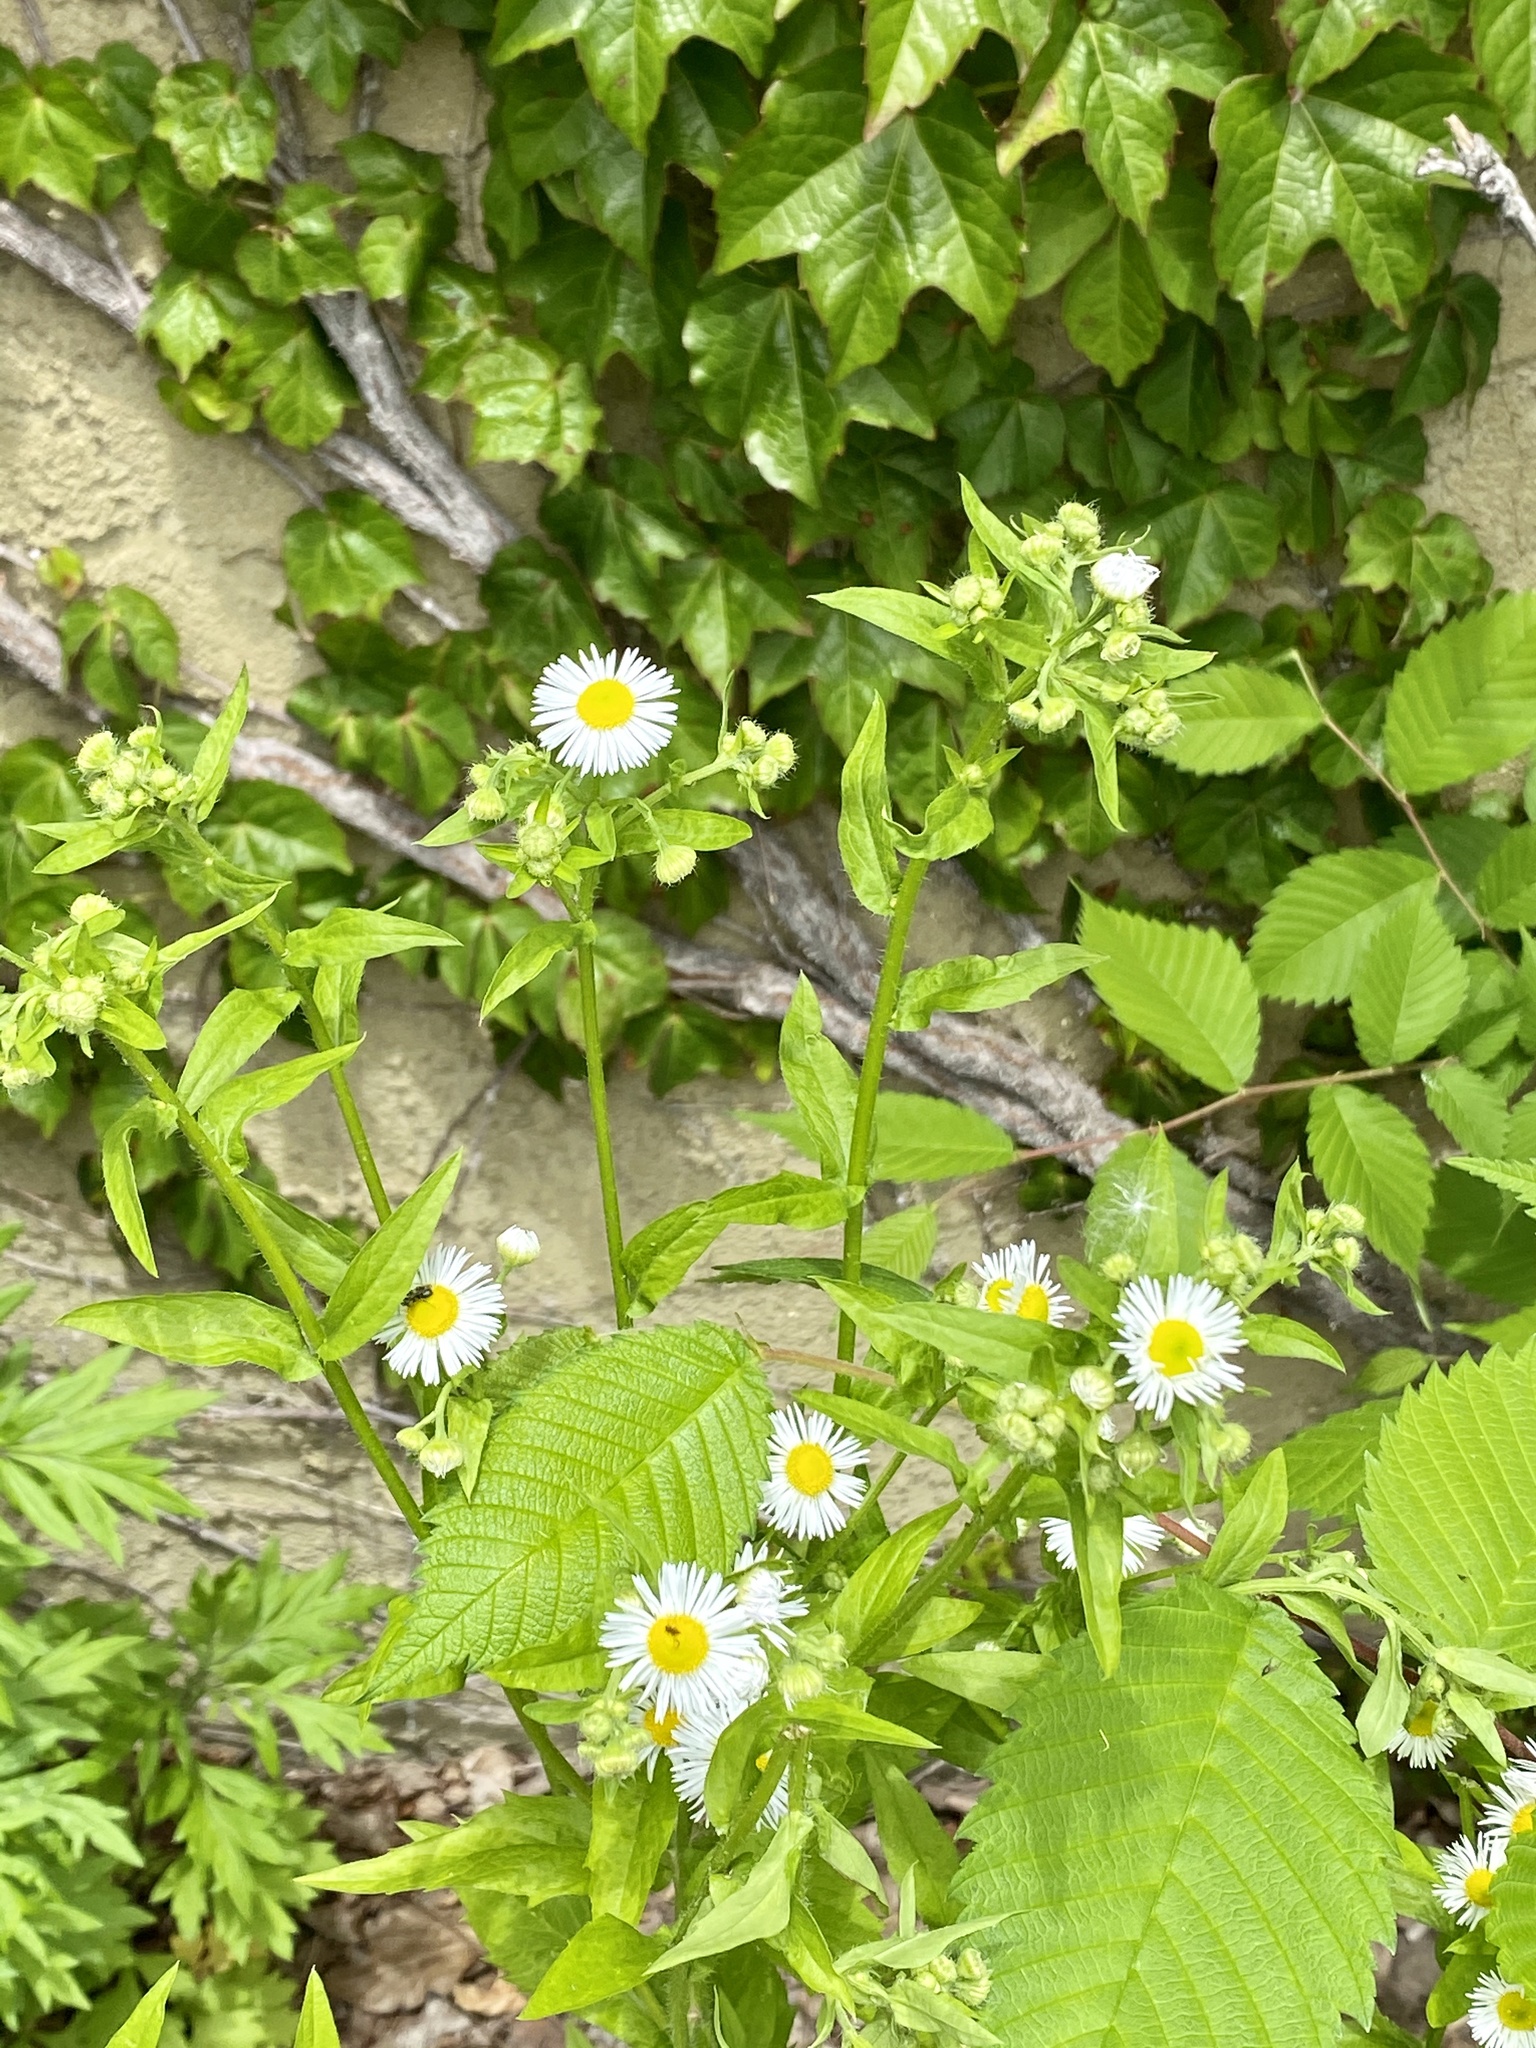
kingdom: Plantae
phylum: Tracheophyta
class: Magnoliopsida
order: Asterales
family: Asteraceae
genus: Erigeron
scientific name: Erigeron annuus
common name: Tall fleabane
